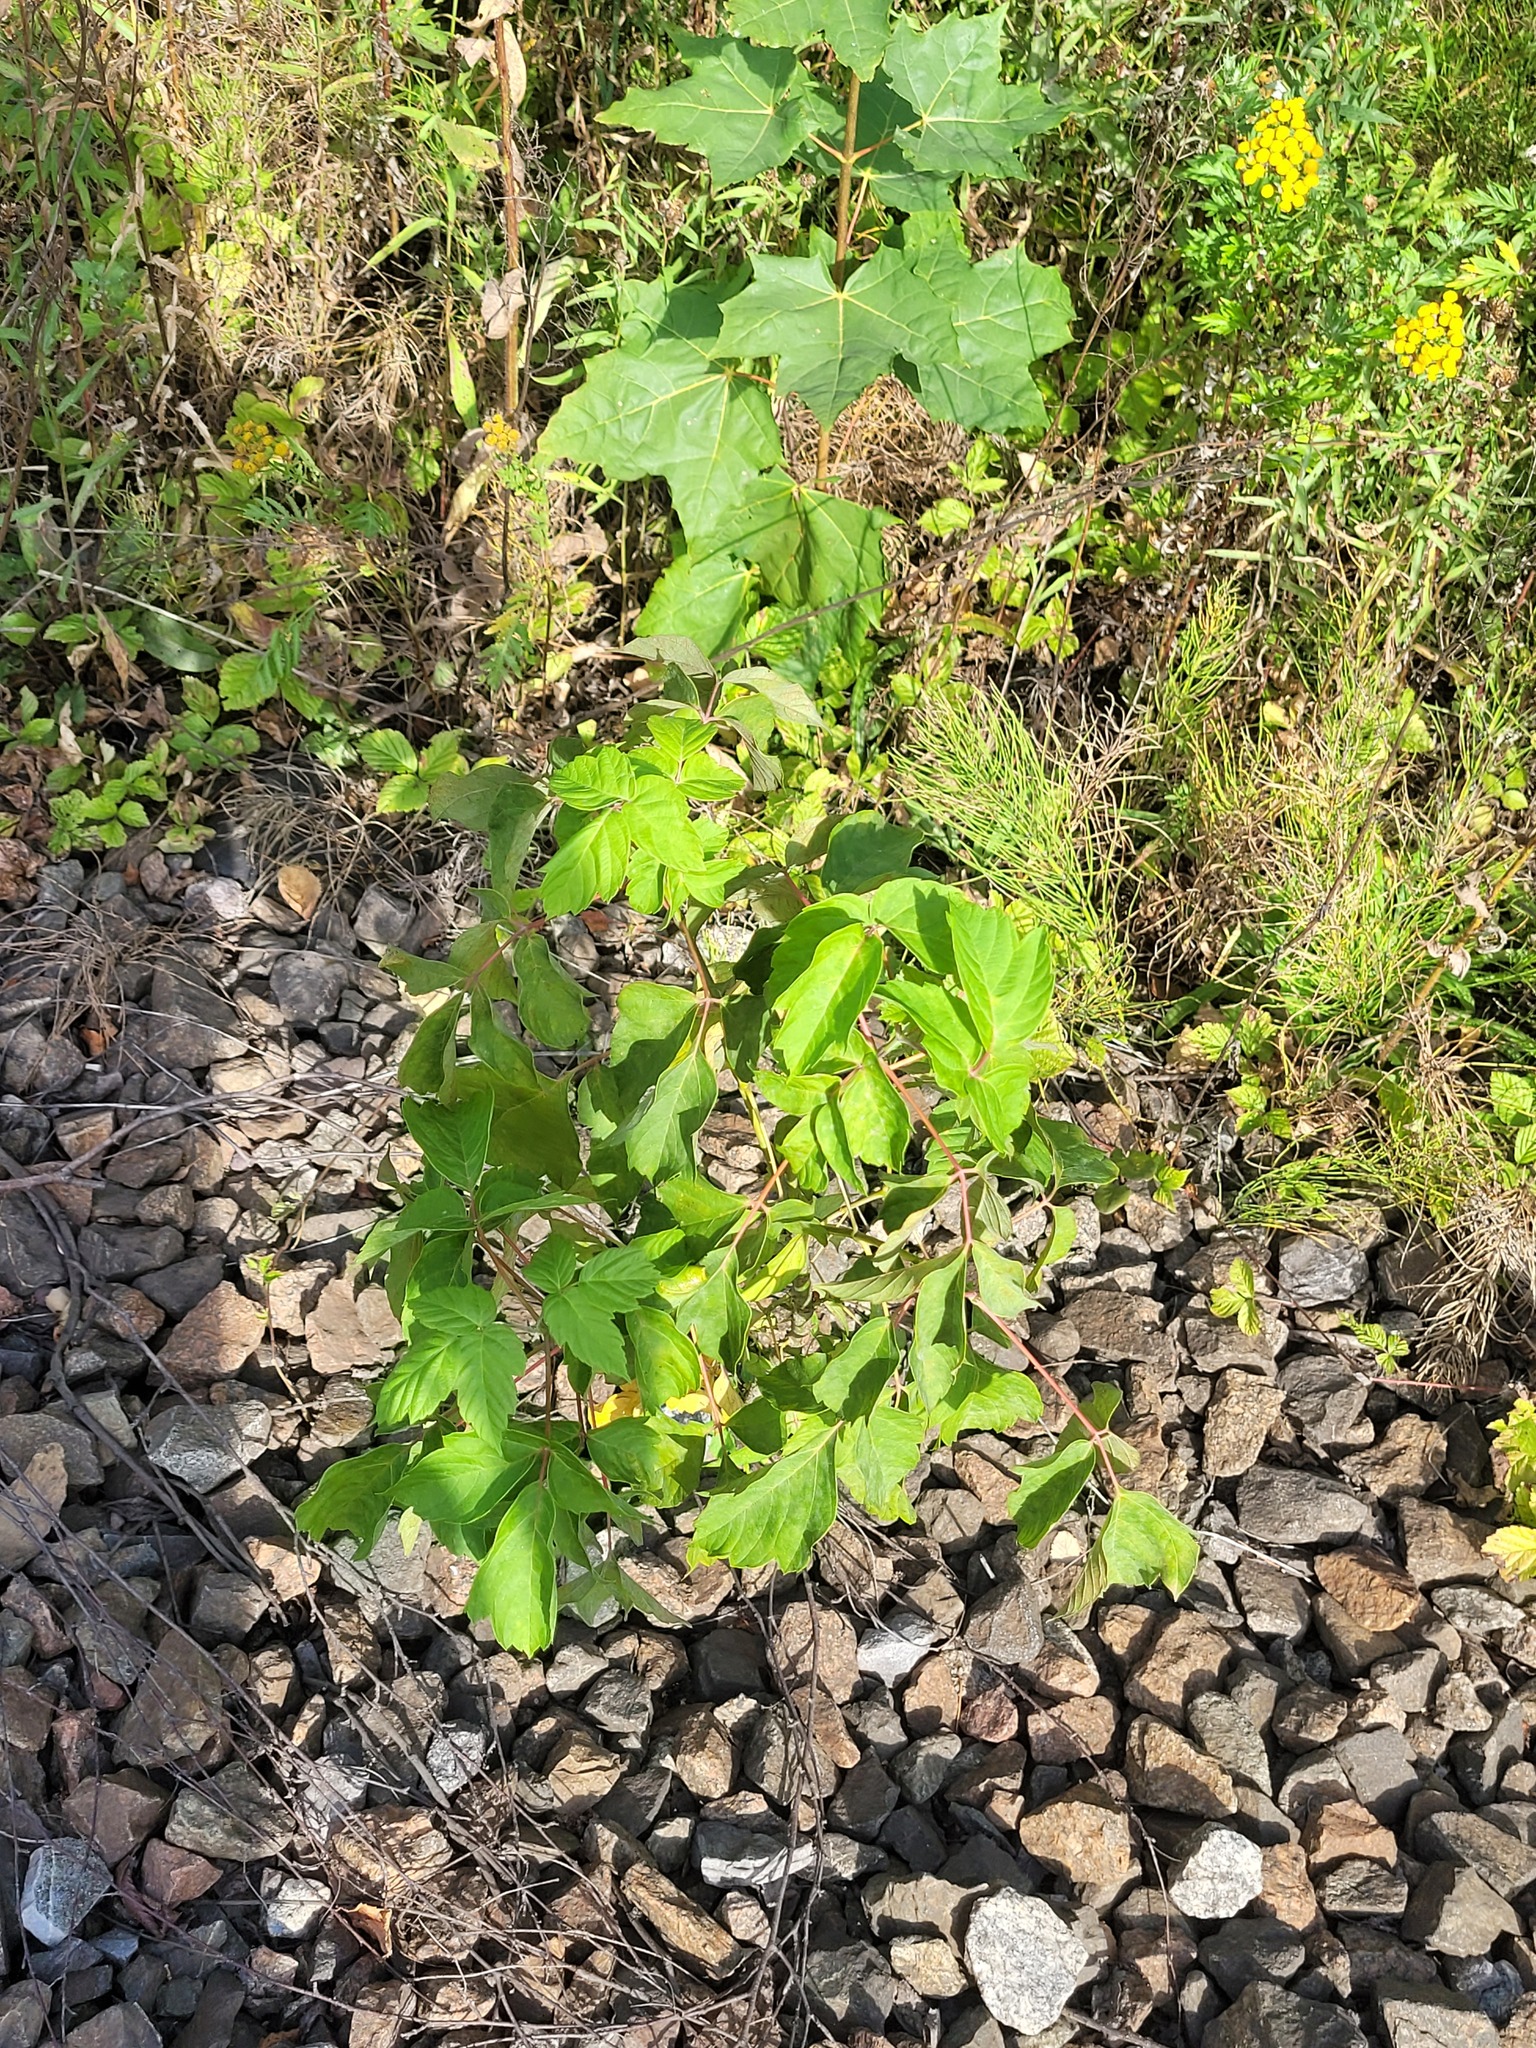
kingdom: Plantae
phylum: Tracheophyta
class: Magnoliopsida
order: Sapindales
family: Sapindaceae
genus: Acer
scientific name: Acer negundo
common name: Ashleaf maple
